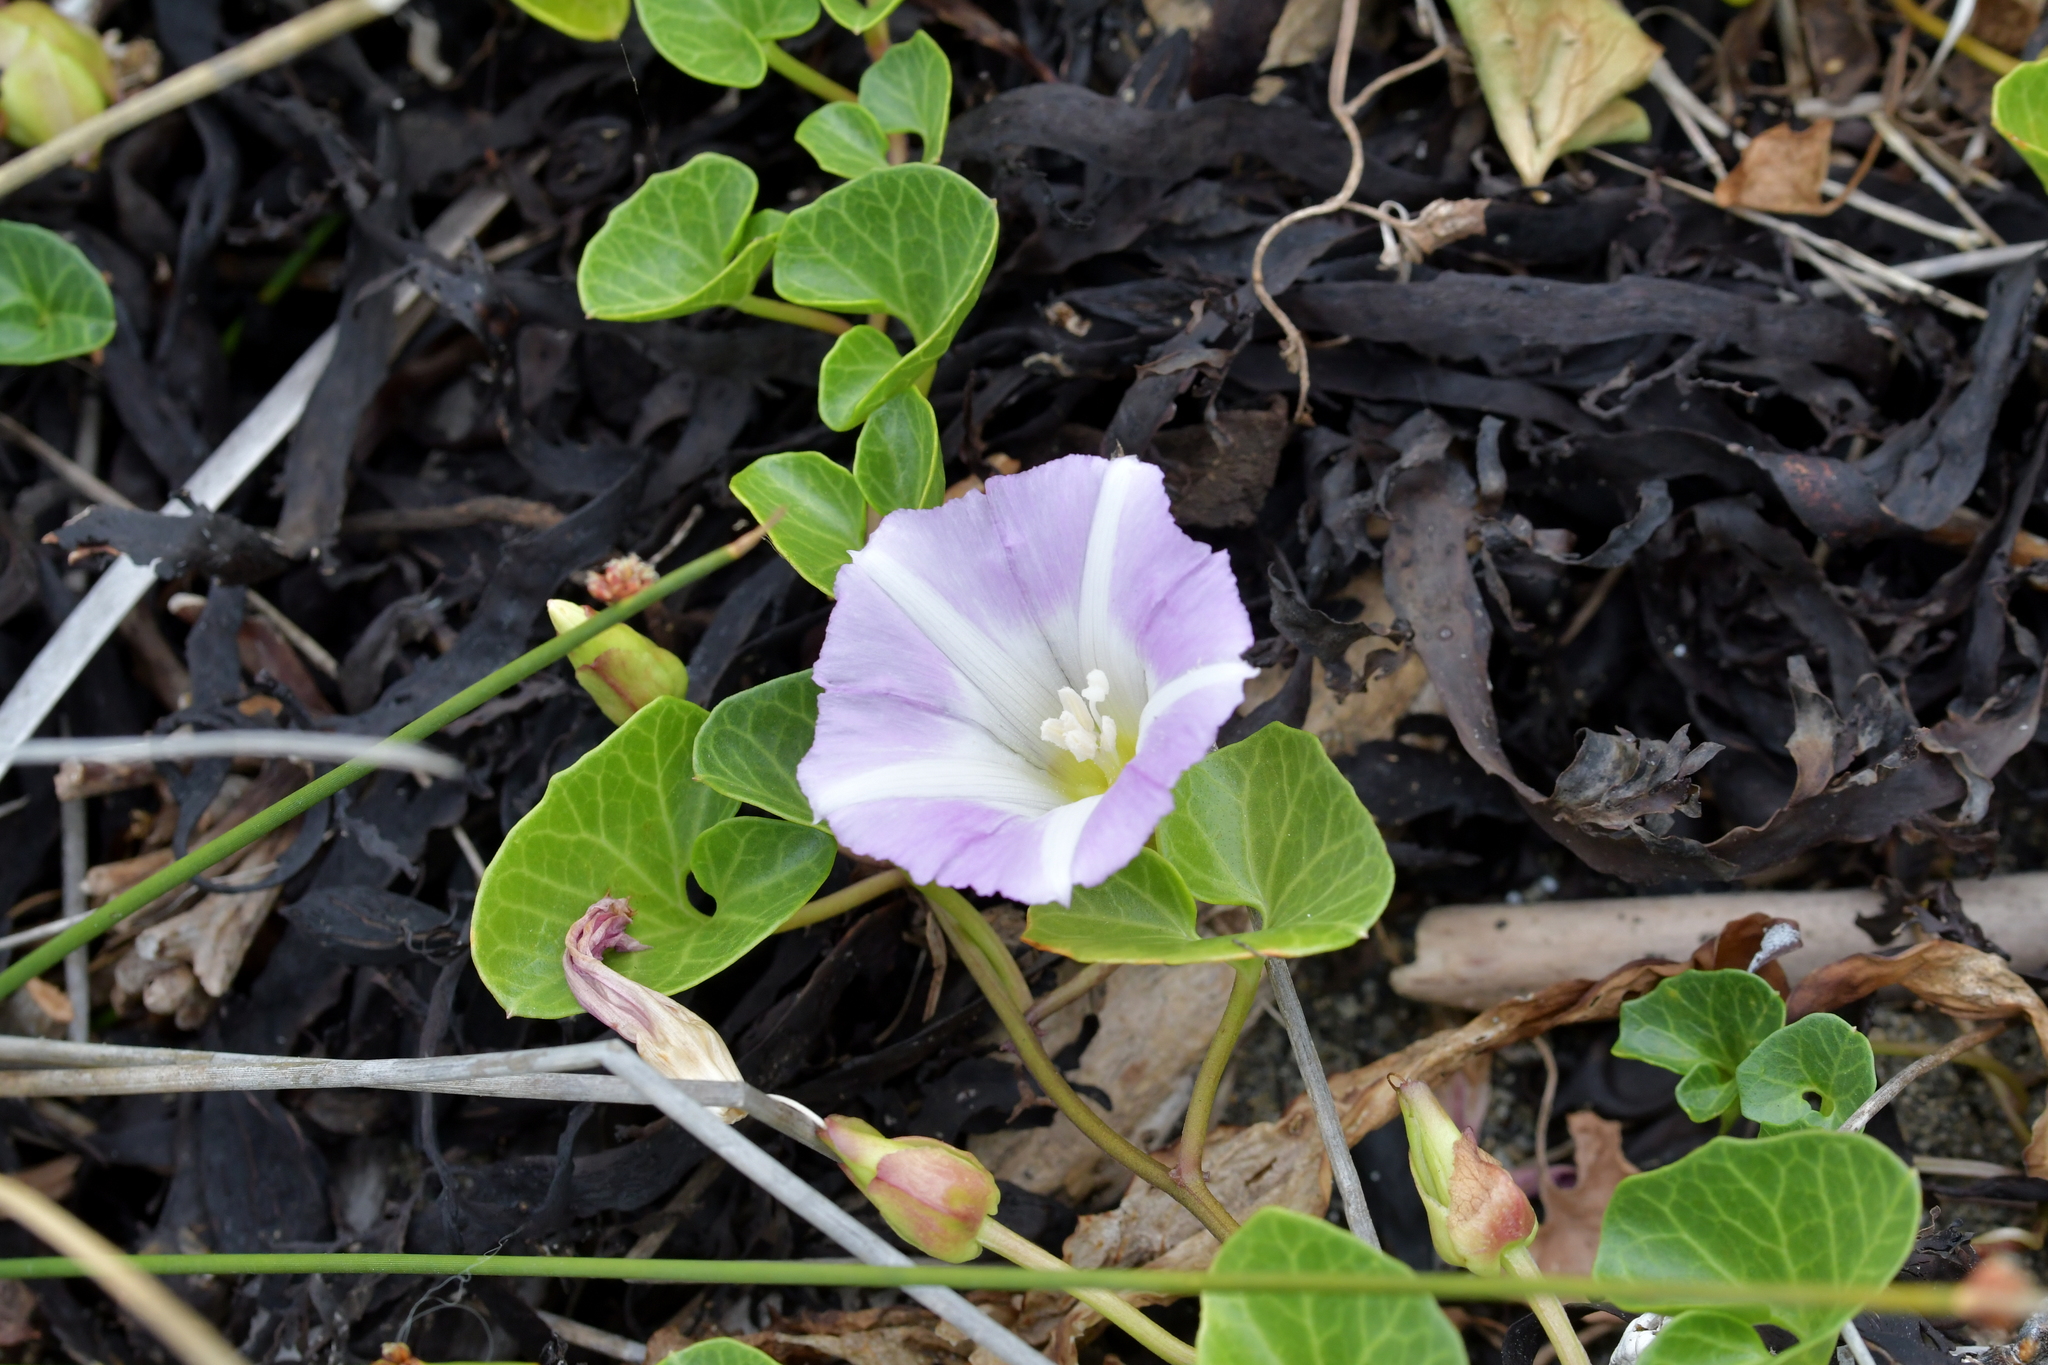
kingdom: Plantae
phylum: Tracheophyta
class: Magnoliopsida
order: Solanales
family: Convolvulaceae
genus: Calystegia
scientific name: Calystegia soldanella
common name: Sea bindweed
